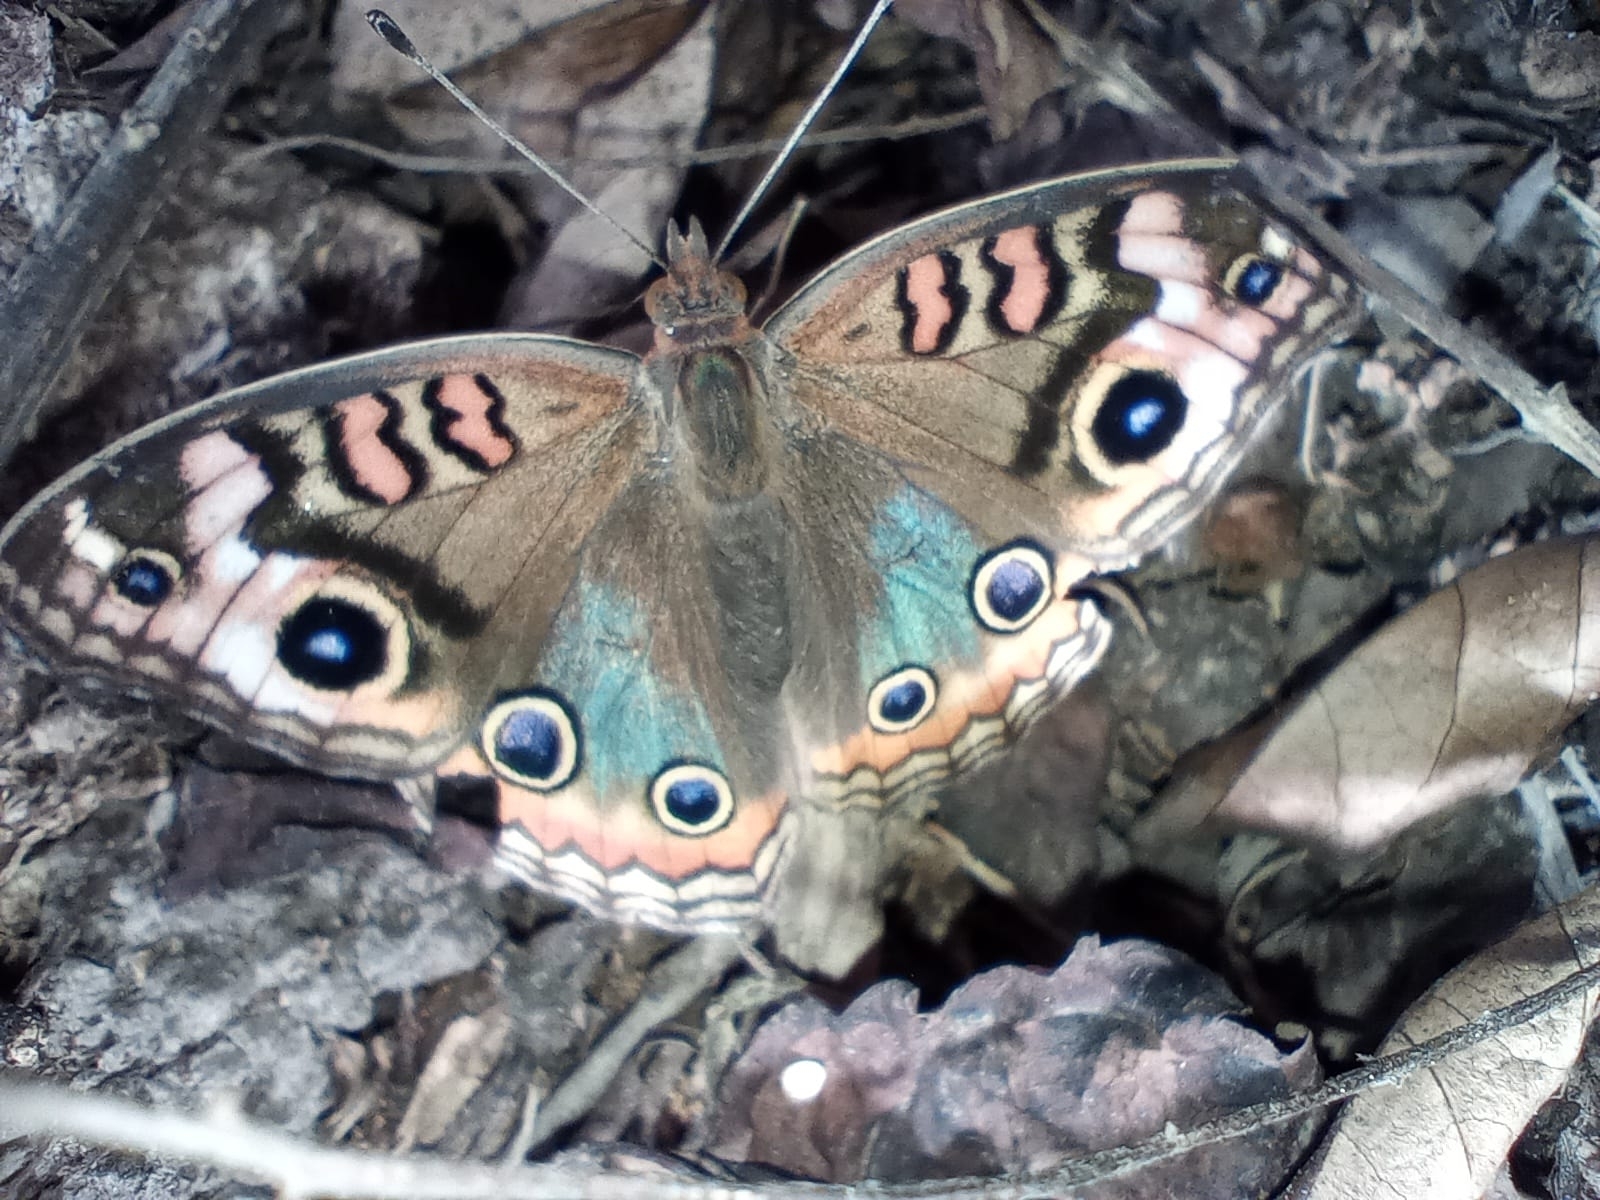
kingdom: Animalia
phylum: Arthropoda
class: Insecta
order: Lepidoptera
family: Nymphalidae
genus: Junonia
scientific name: Junonia lavinia
